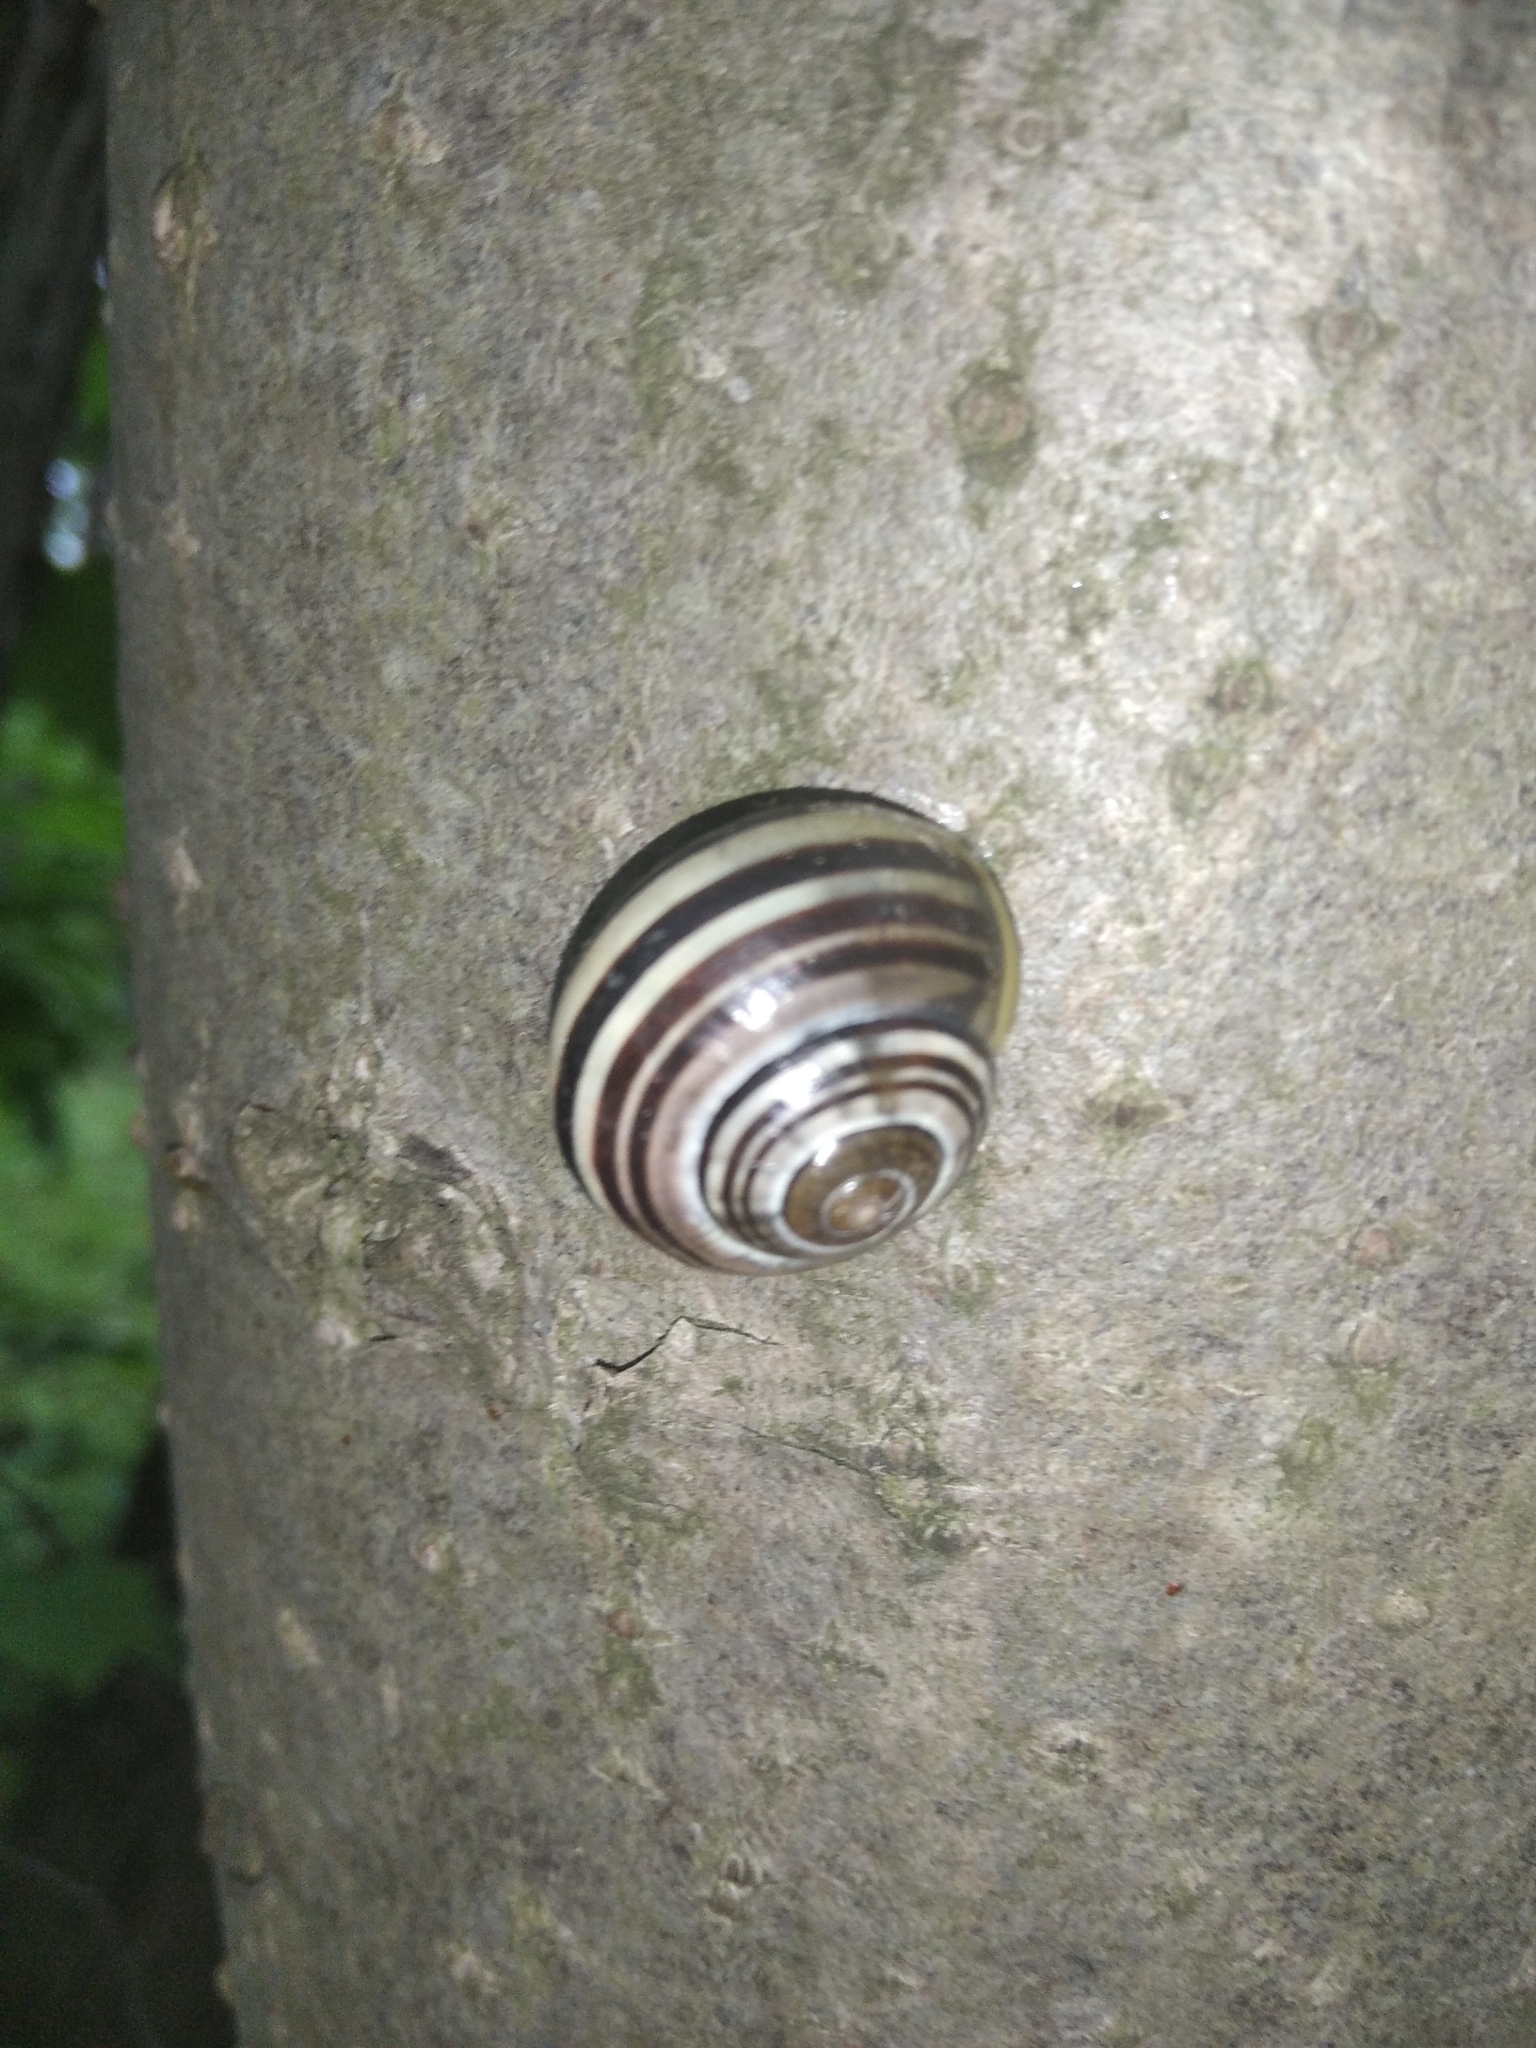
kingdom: Animalia
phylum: Mollusca
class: Gastropoda
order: Stylommatophora
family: Helicidae
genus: Cepaea
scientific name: Cepaea nemoralis
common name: Grovesnail
